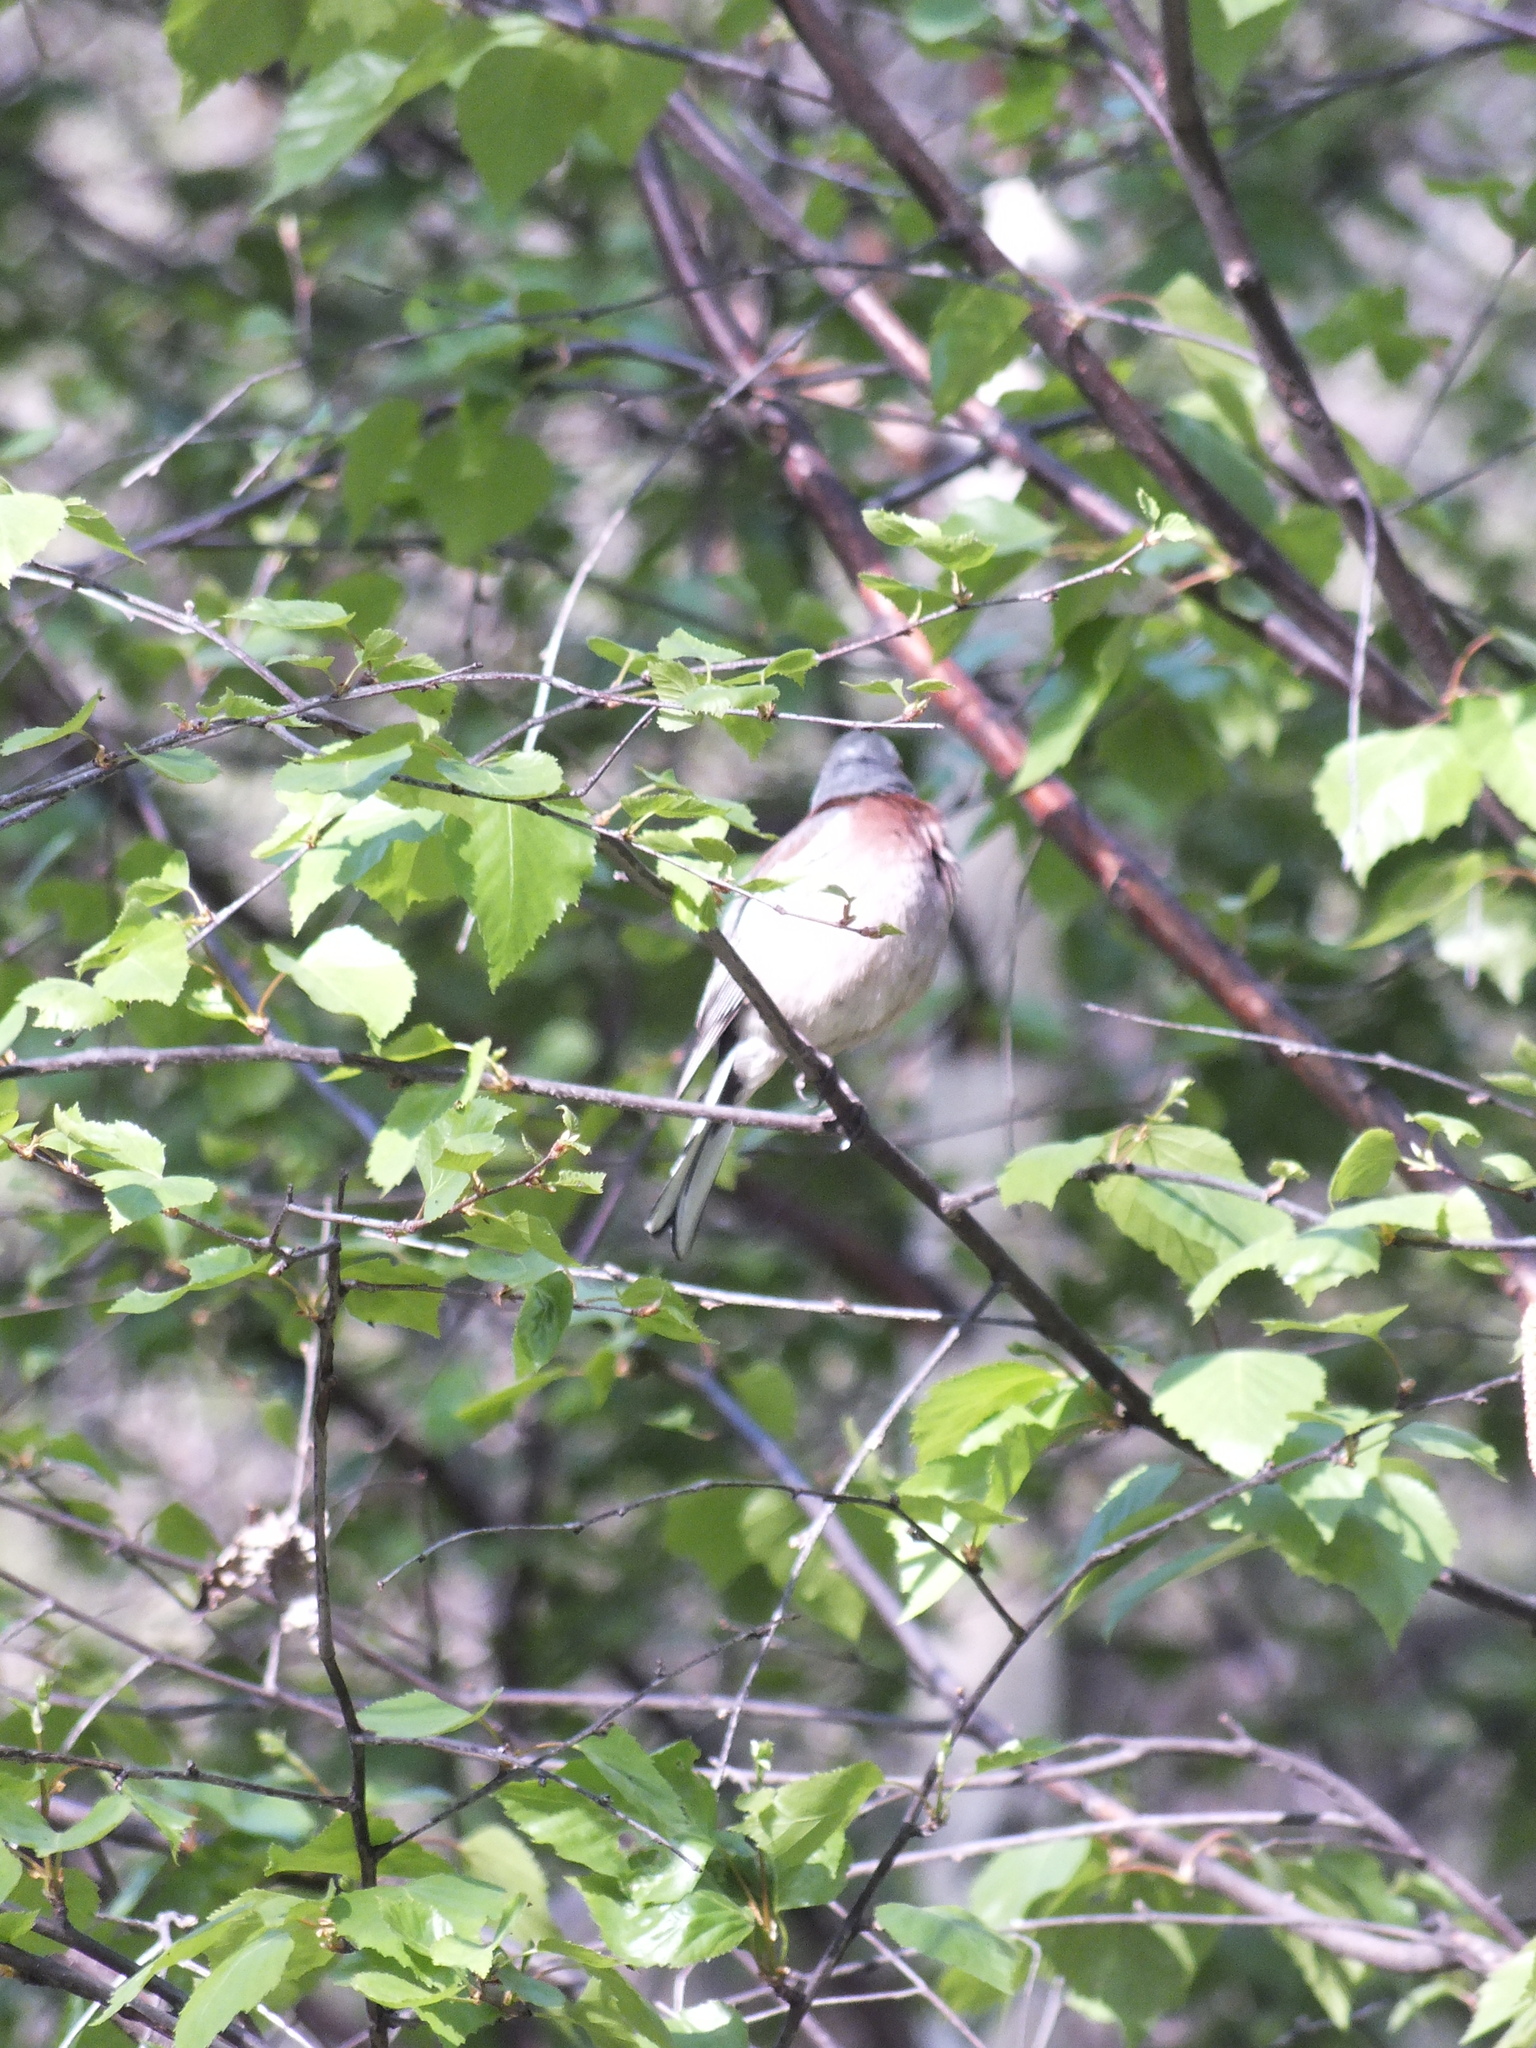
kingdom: Animalia
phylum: Chordata
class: Aves
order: Passeriformes
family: Fringillidae
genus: Fringilla
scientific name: Fringilla coelebs
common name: Common chaffinch
